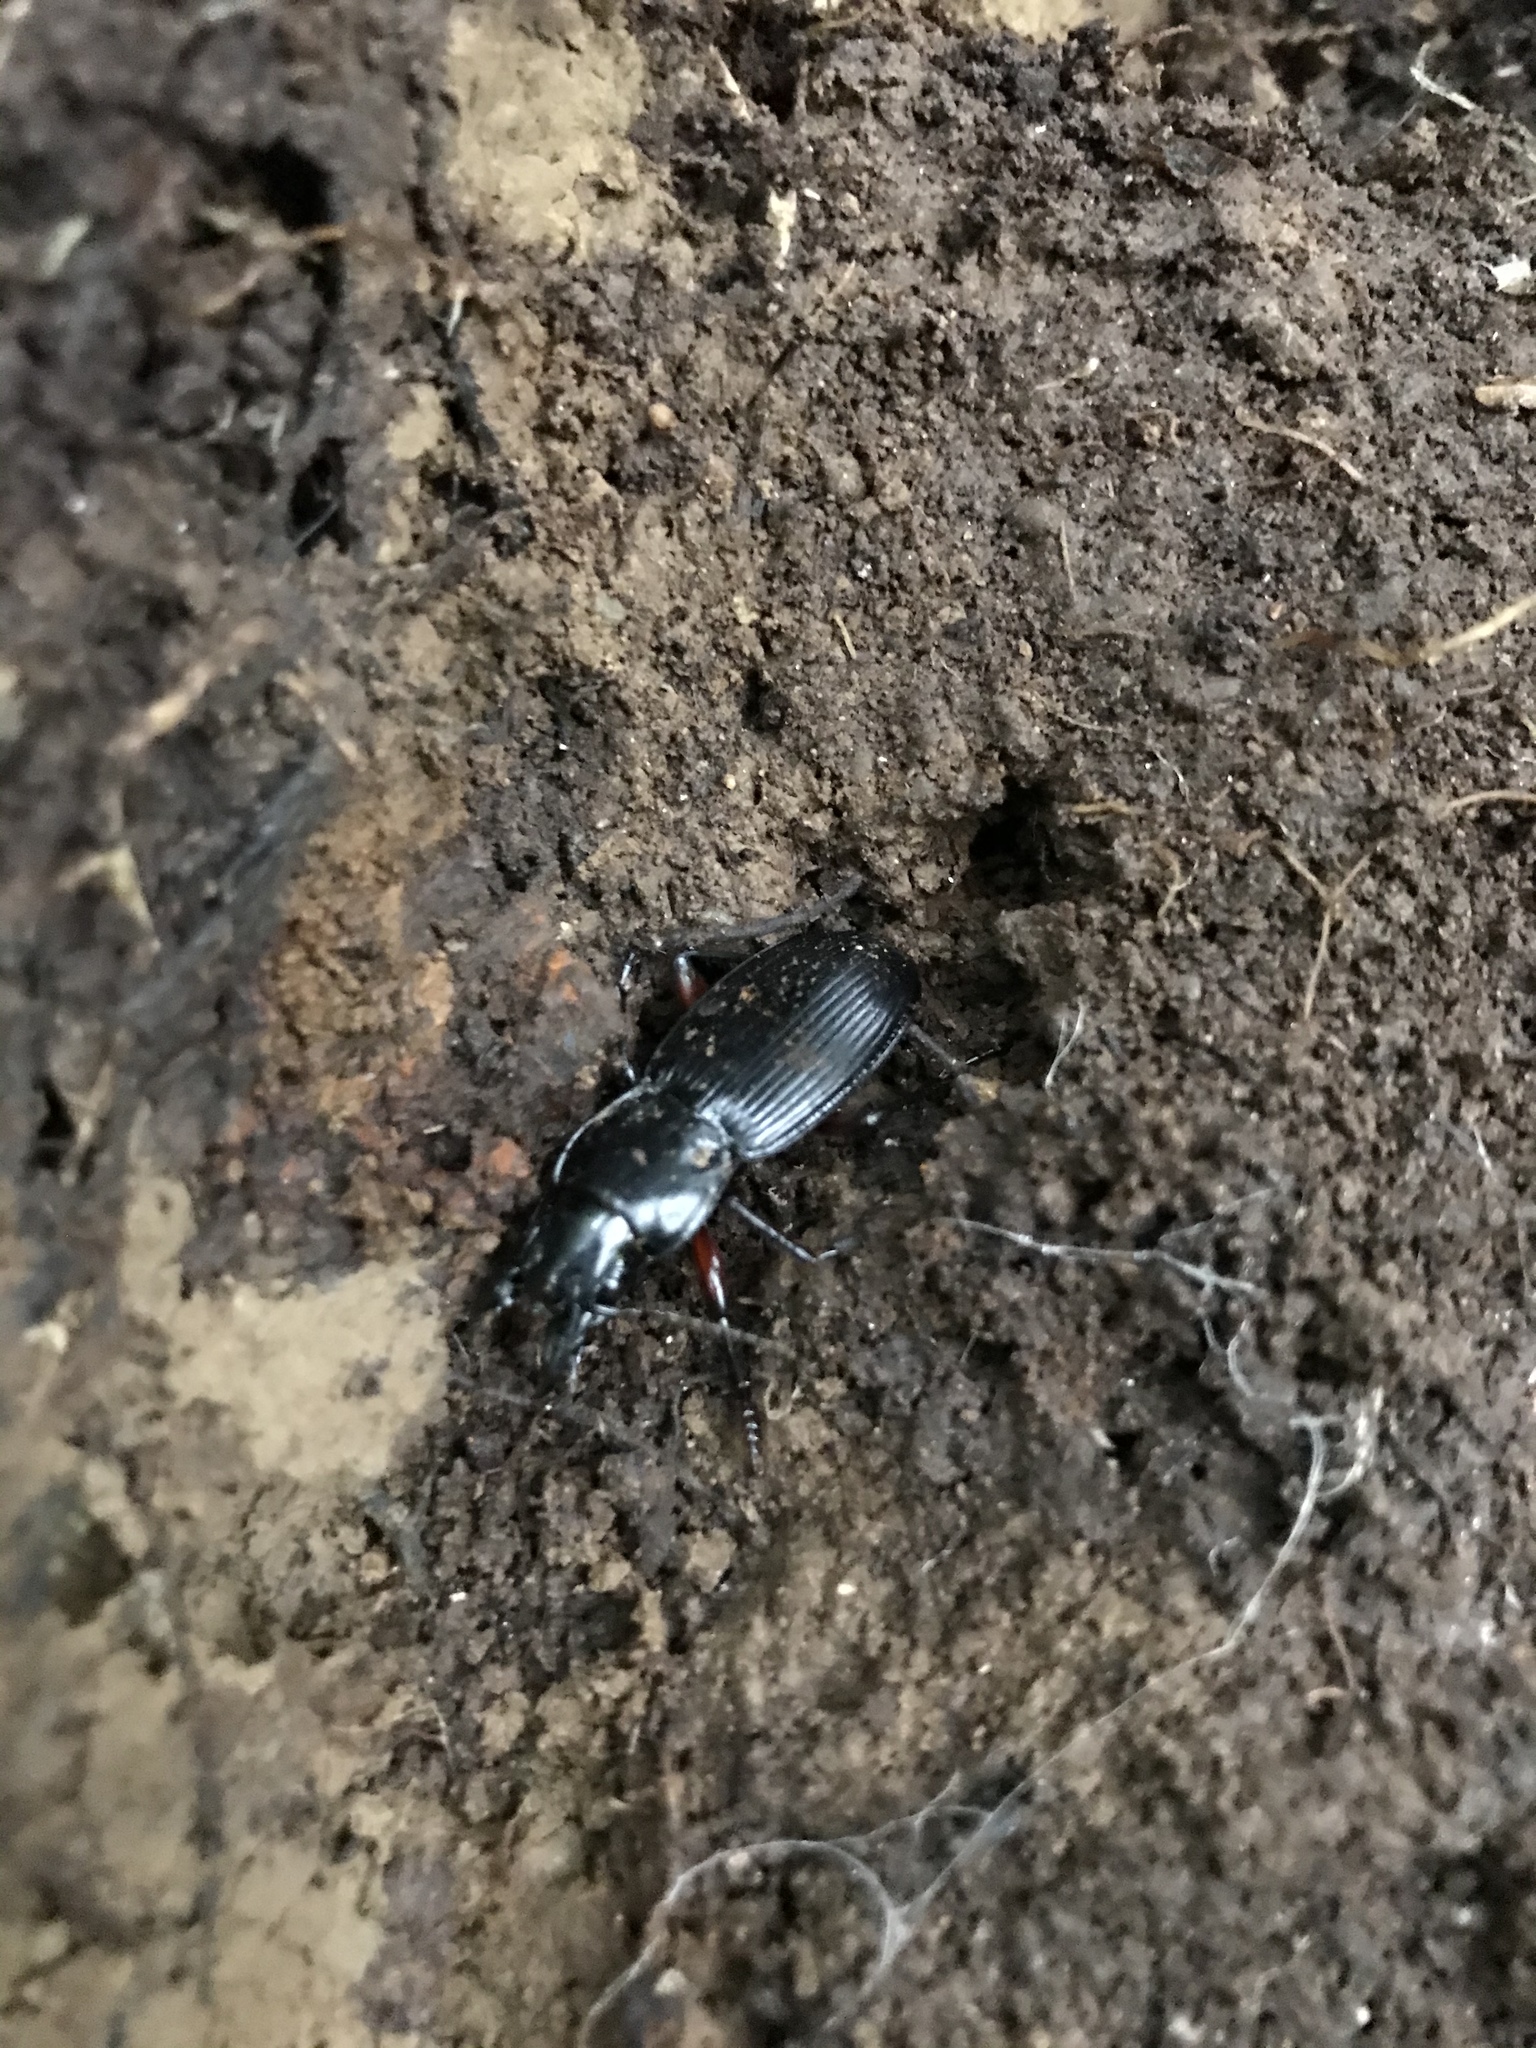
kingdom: Animalia
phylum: Arthropoda
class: Insecta
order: Coleoptera
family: Carabidae
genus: Plocamostethus
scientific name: Plocamostethus planiusculus
